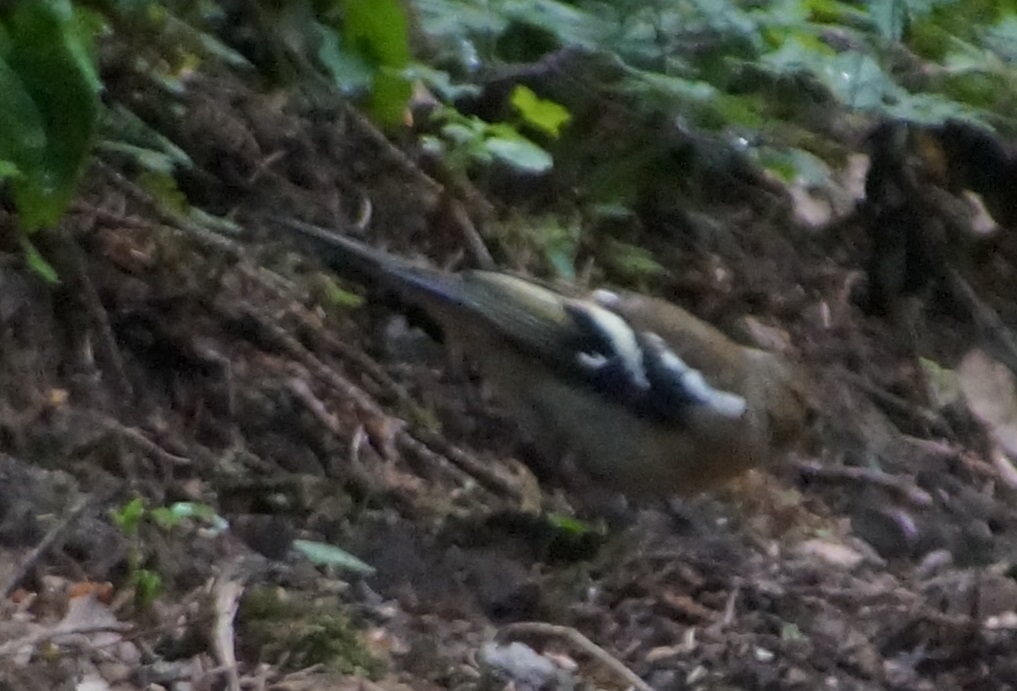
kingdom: Animalia
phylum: Chordata
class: Aves
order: Passeriformes
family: Fringillidae
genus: Fringilla
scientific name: Fringilla coelebs
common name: Common chaffinch
